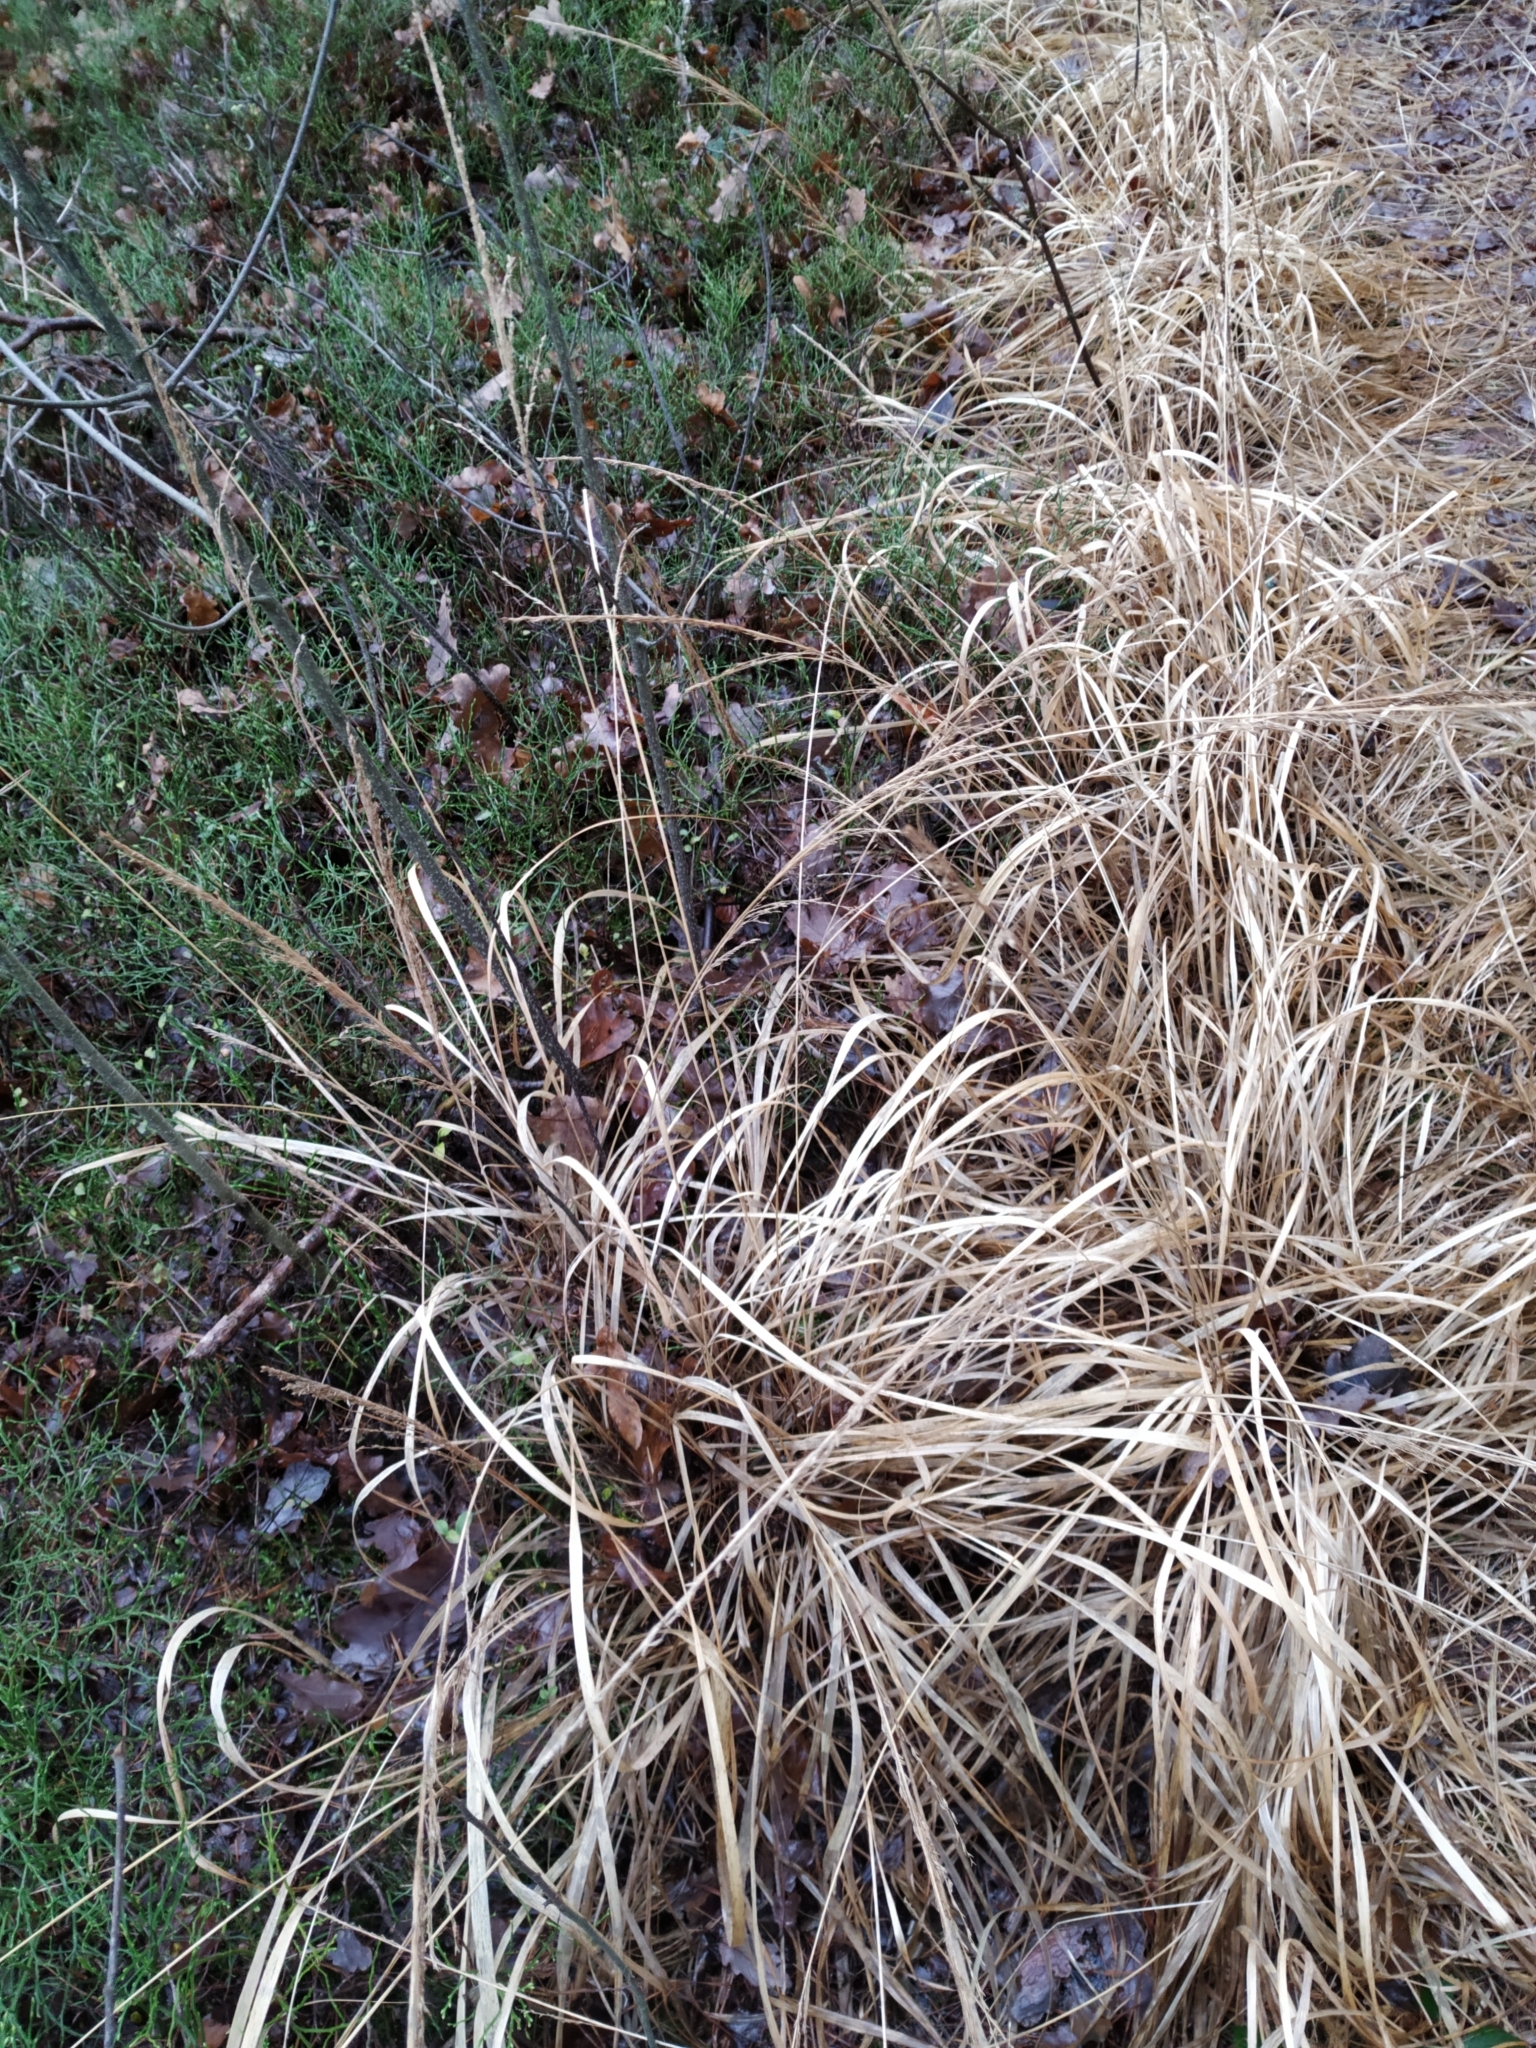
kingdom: Plantae
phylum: Tracheophyta
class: Liliopsida
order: Poales
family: Poaceae
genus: Molinia
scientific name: Molinia caerulea
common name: Purple moor-grass
